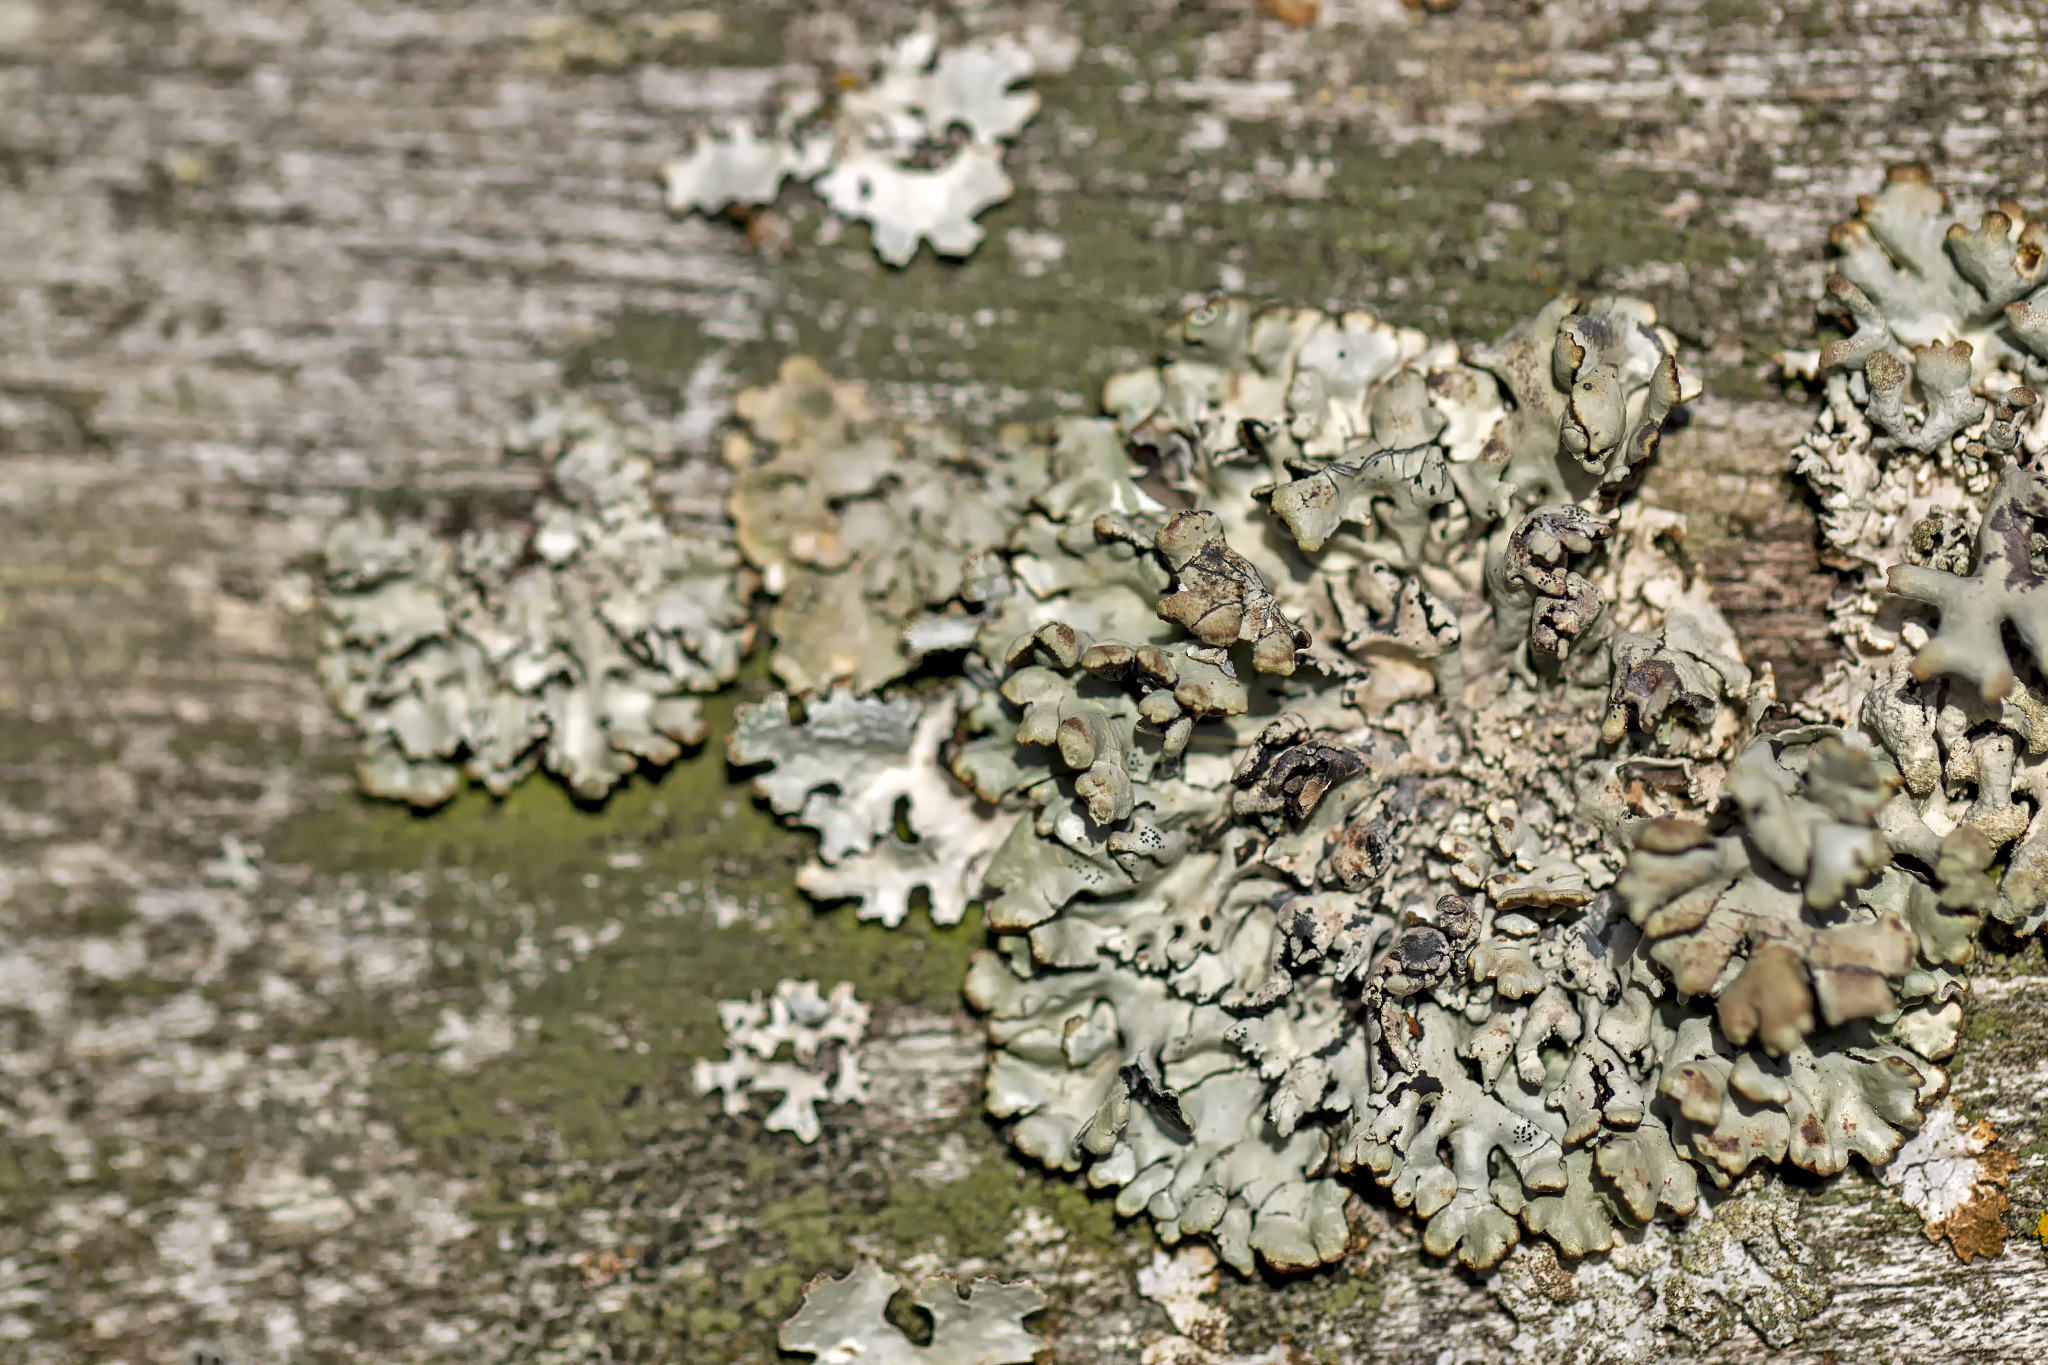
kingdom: Fungi
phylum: Ascomycota
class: Lecanoromycetes
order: Lecanorales
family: Parmeliaceae
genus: Hypogymnia
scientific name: Hypogymnia physodes
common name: Dark crottle
